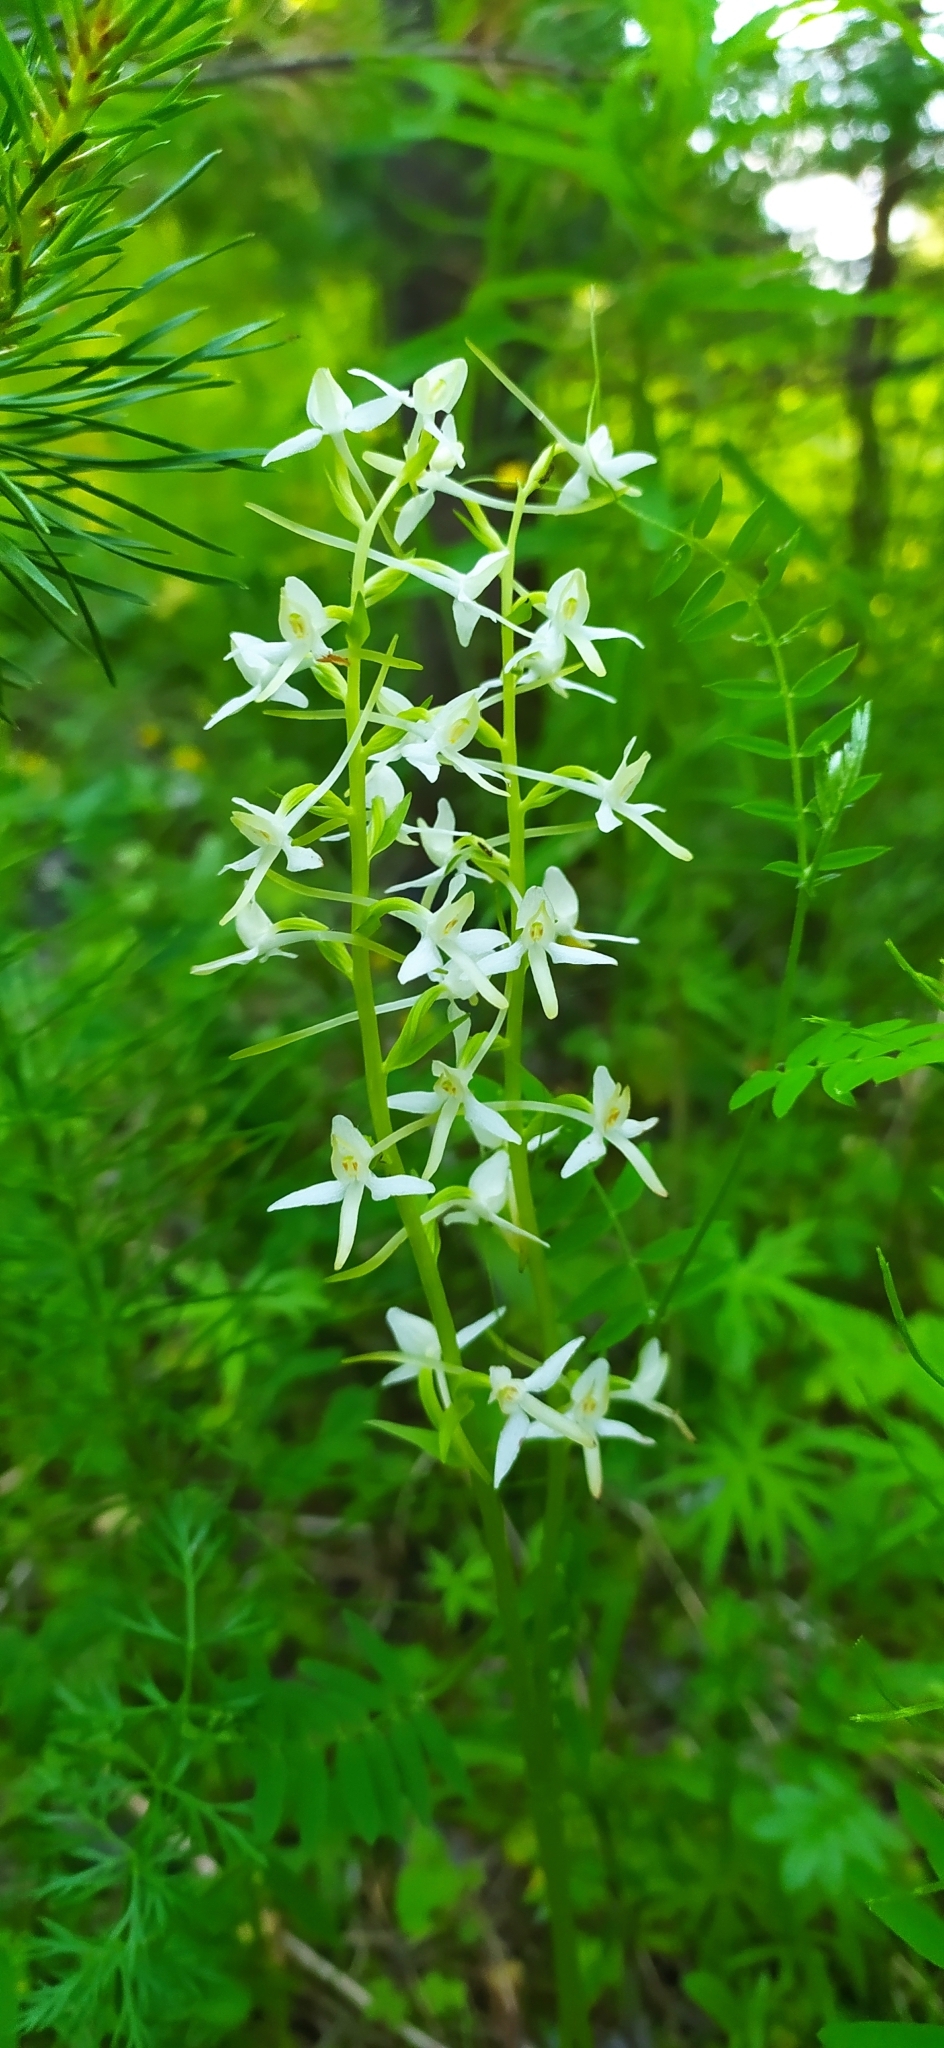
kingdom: Plantae
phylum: Tracheophyta
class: Liliopsida
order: Asparagales
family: Orchidaceae
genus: Platanthera
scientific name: Platanthera bifolia
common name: Lesser butterfly-orchid
